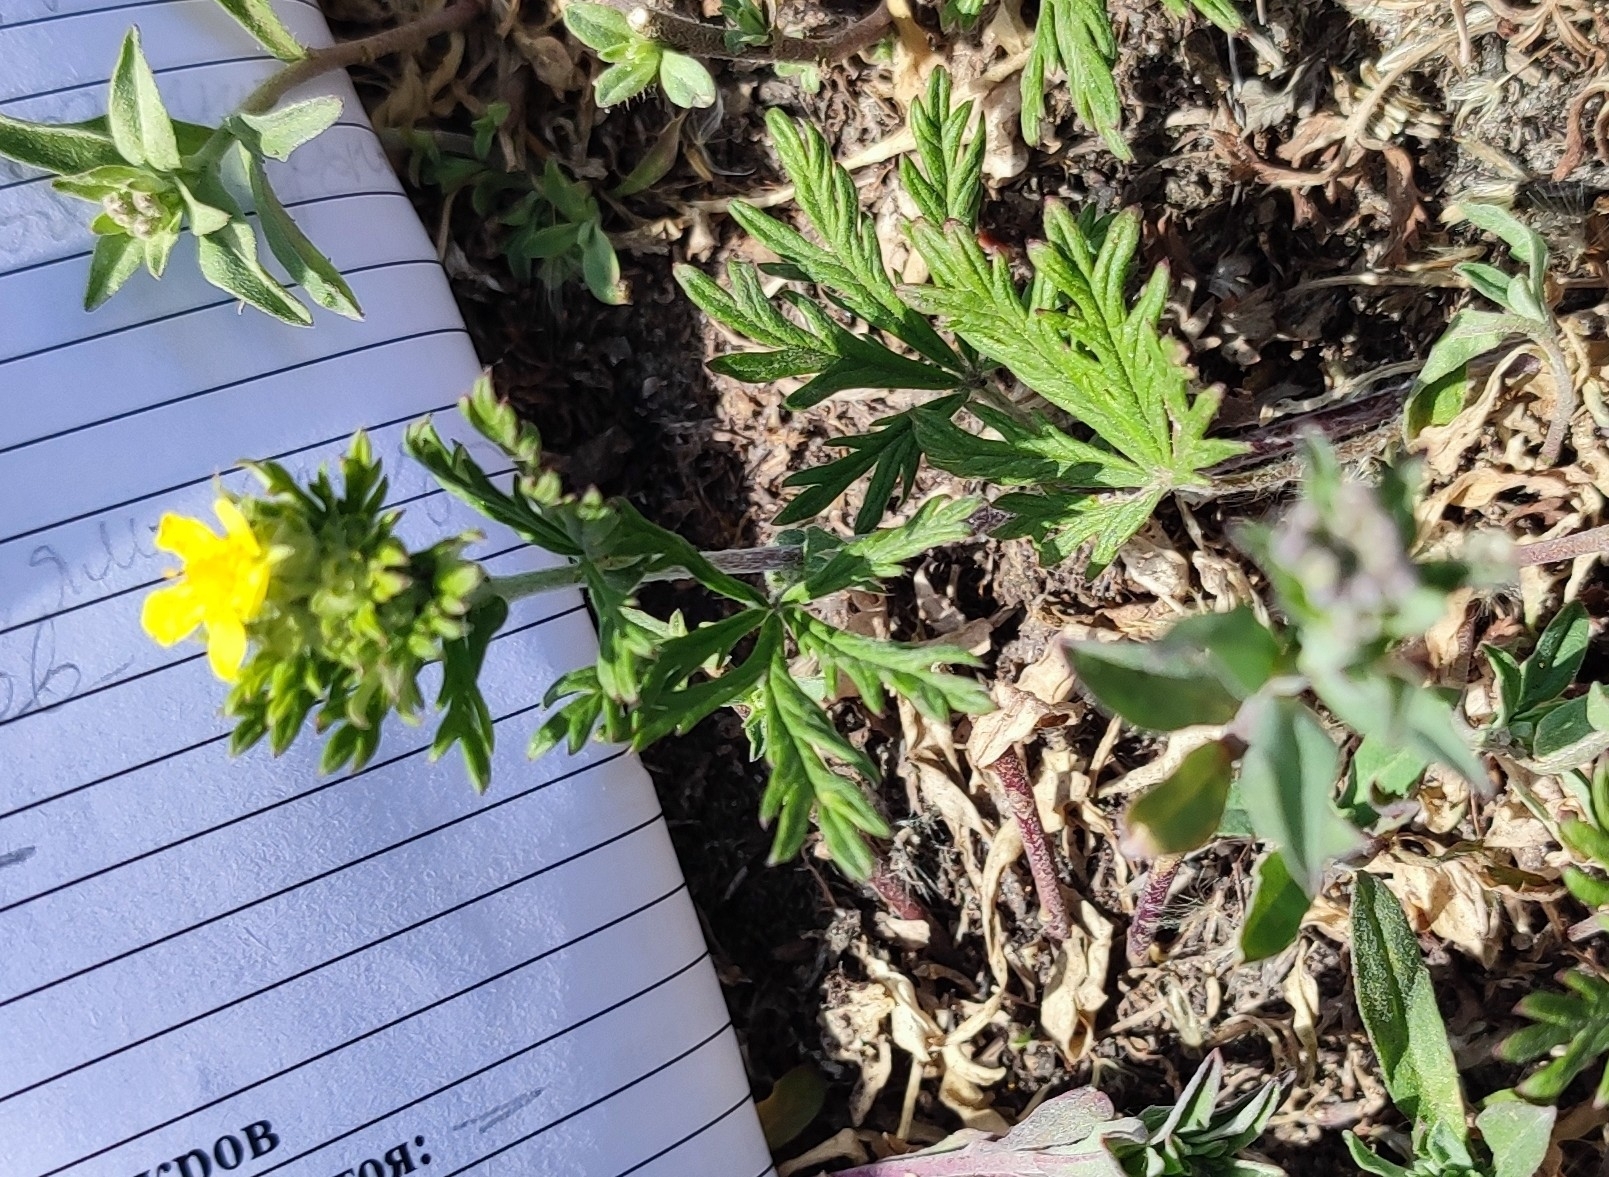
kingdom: Plantae
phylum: Tracheophyta
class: Magnoliopsida
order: Rosales
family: Rosaceae
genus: Potentilla
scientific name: Potentilla argentea
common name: Hoary cinquefoil
